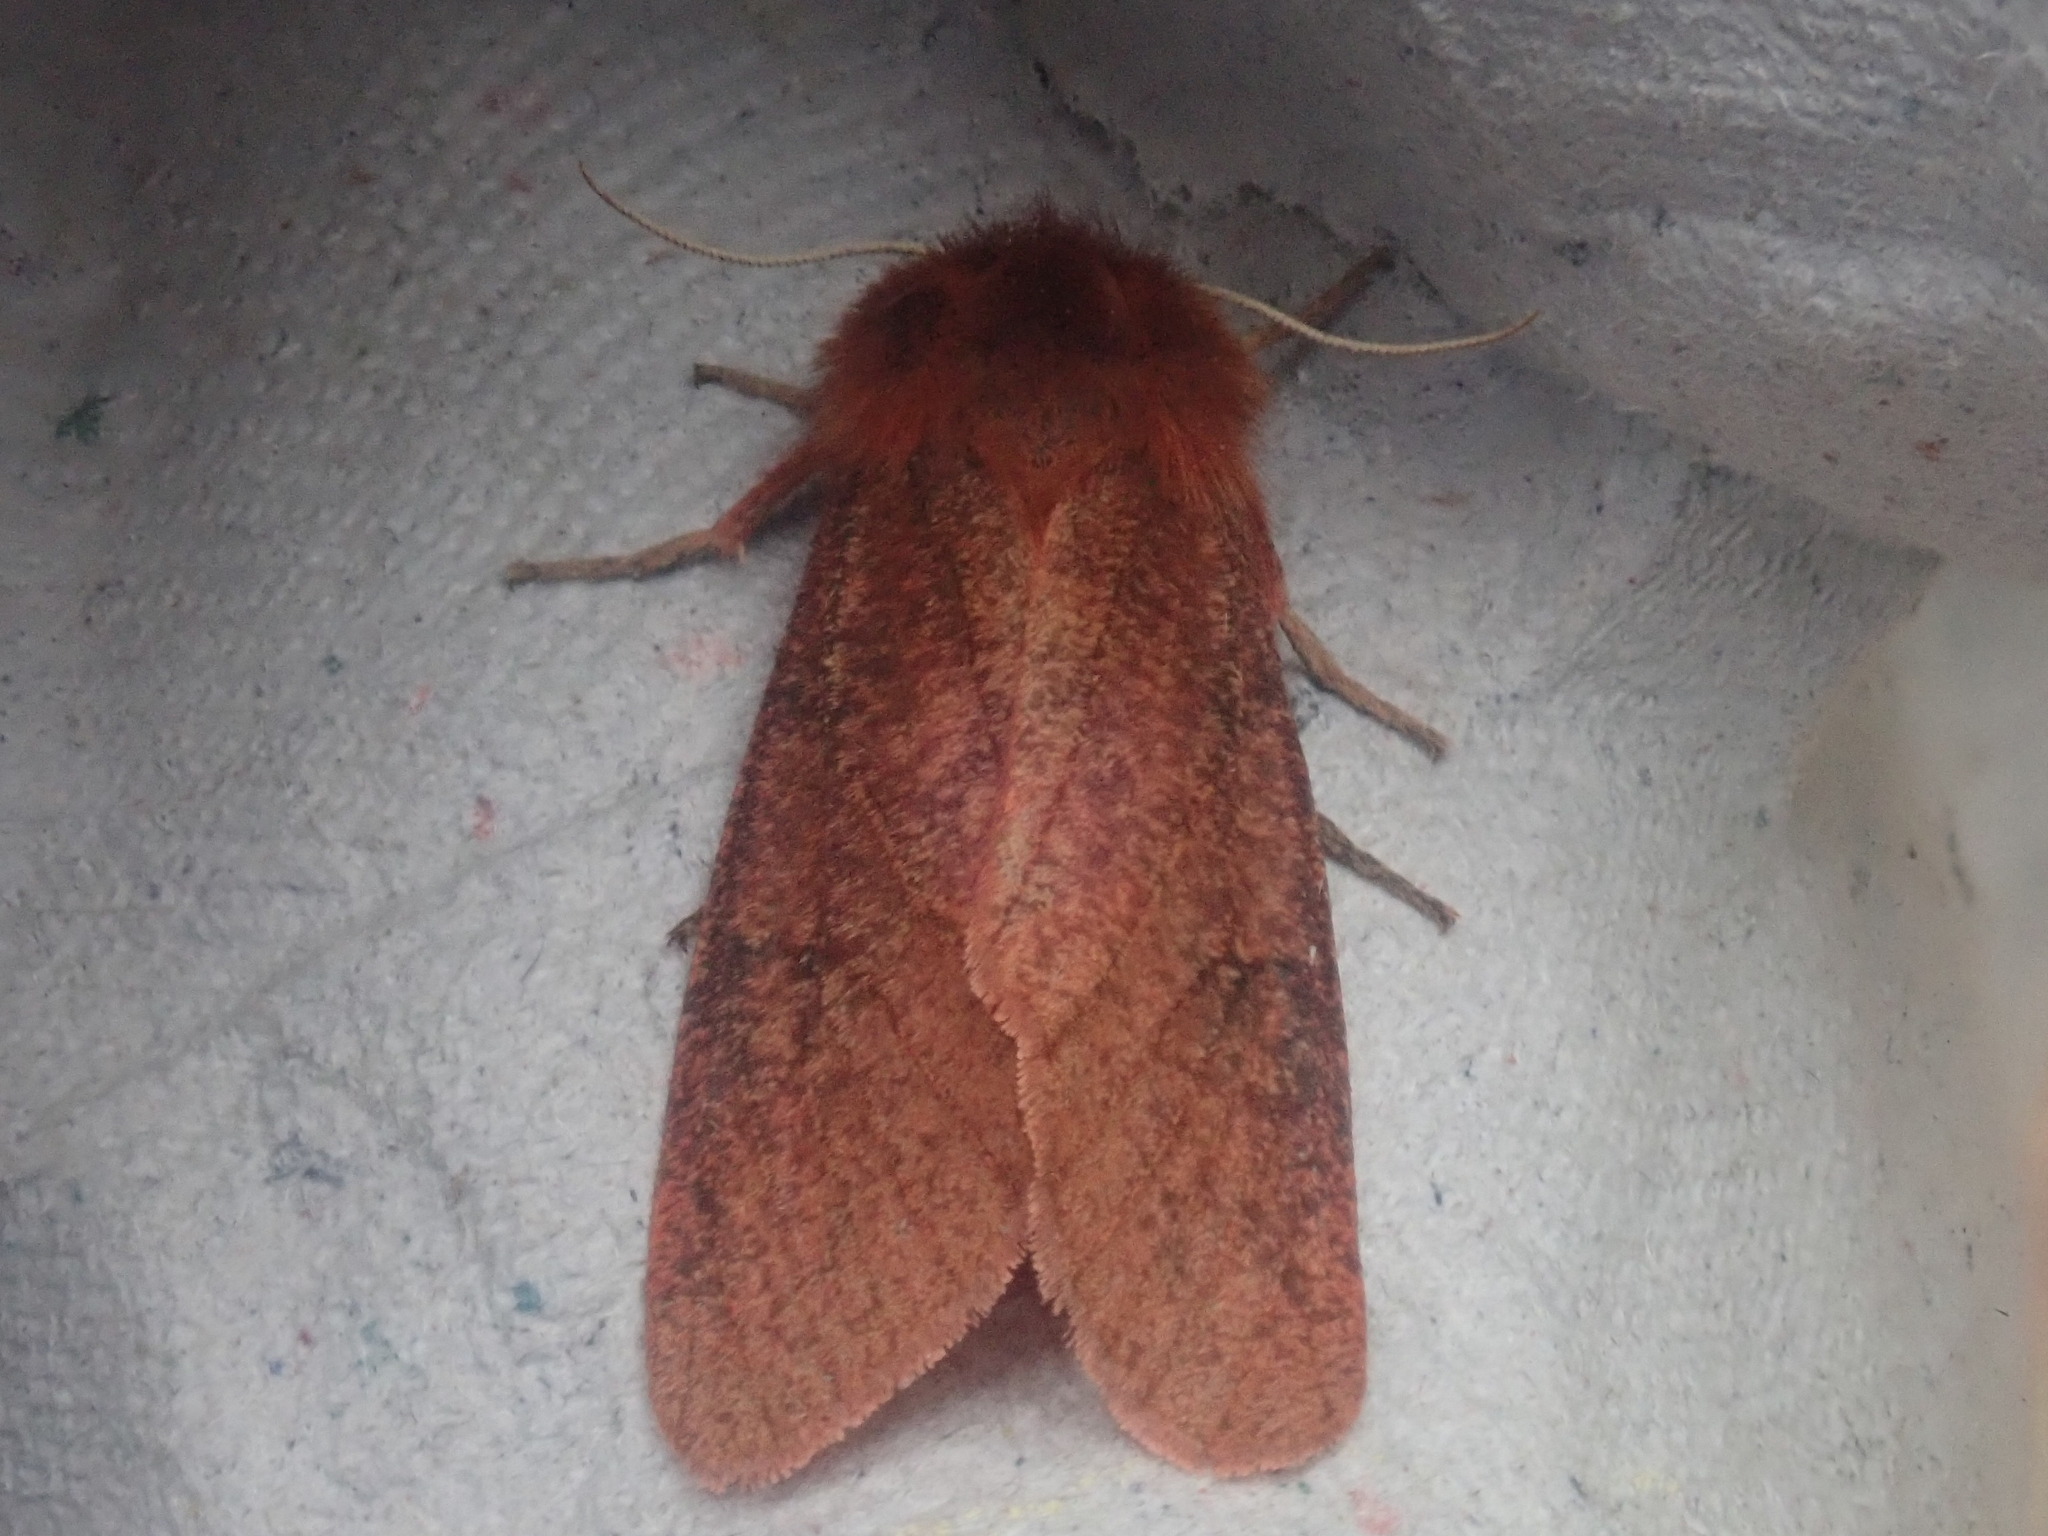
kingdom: Animalia
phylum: Arthropoda
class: Insecta
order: Lepidoptera
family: Erebidae
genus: Phragmatobia
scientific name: Phragmatobia assimilans
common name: Large ruby tiger moth
